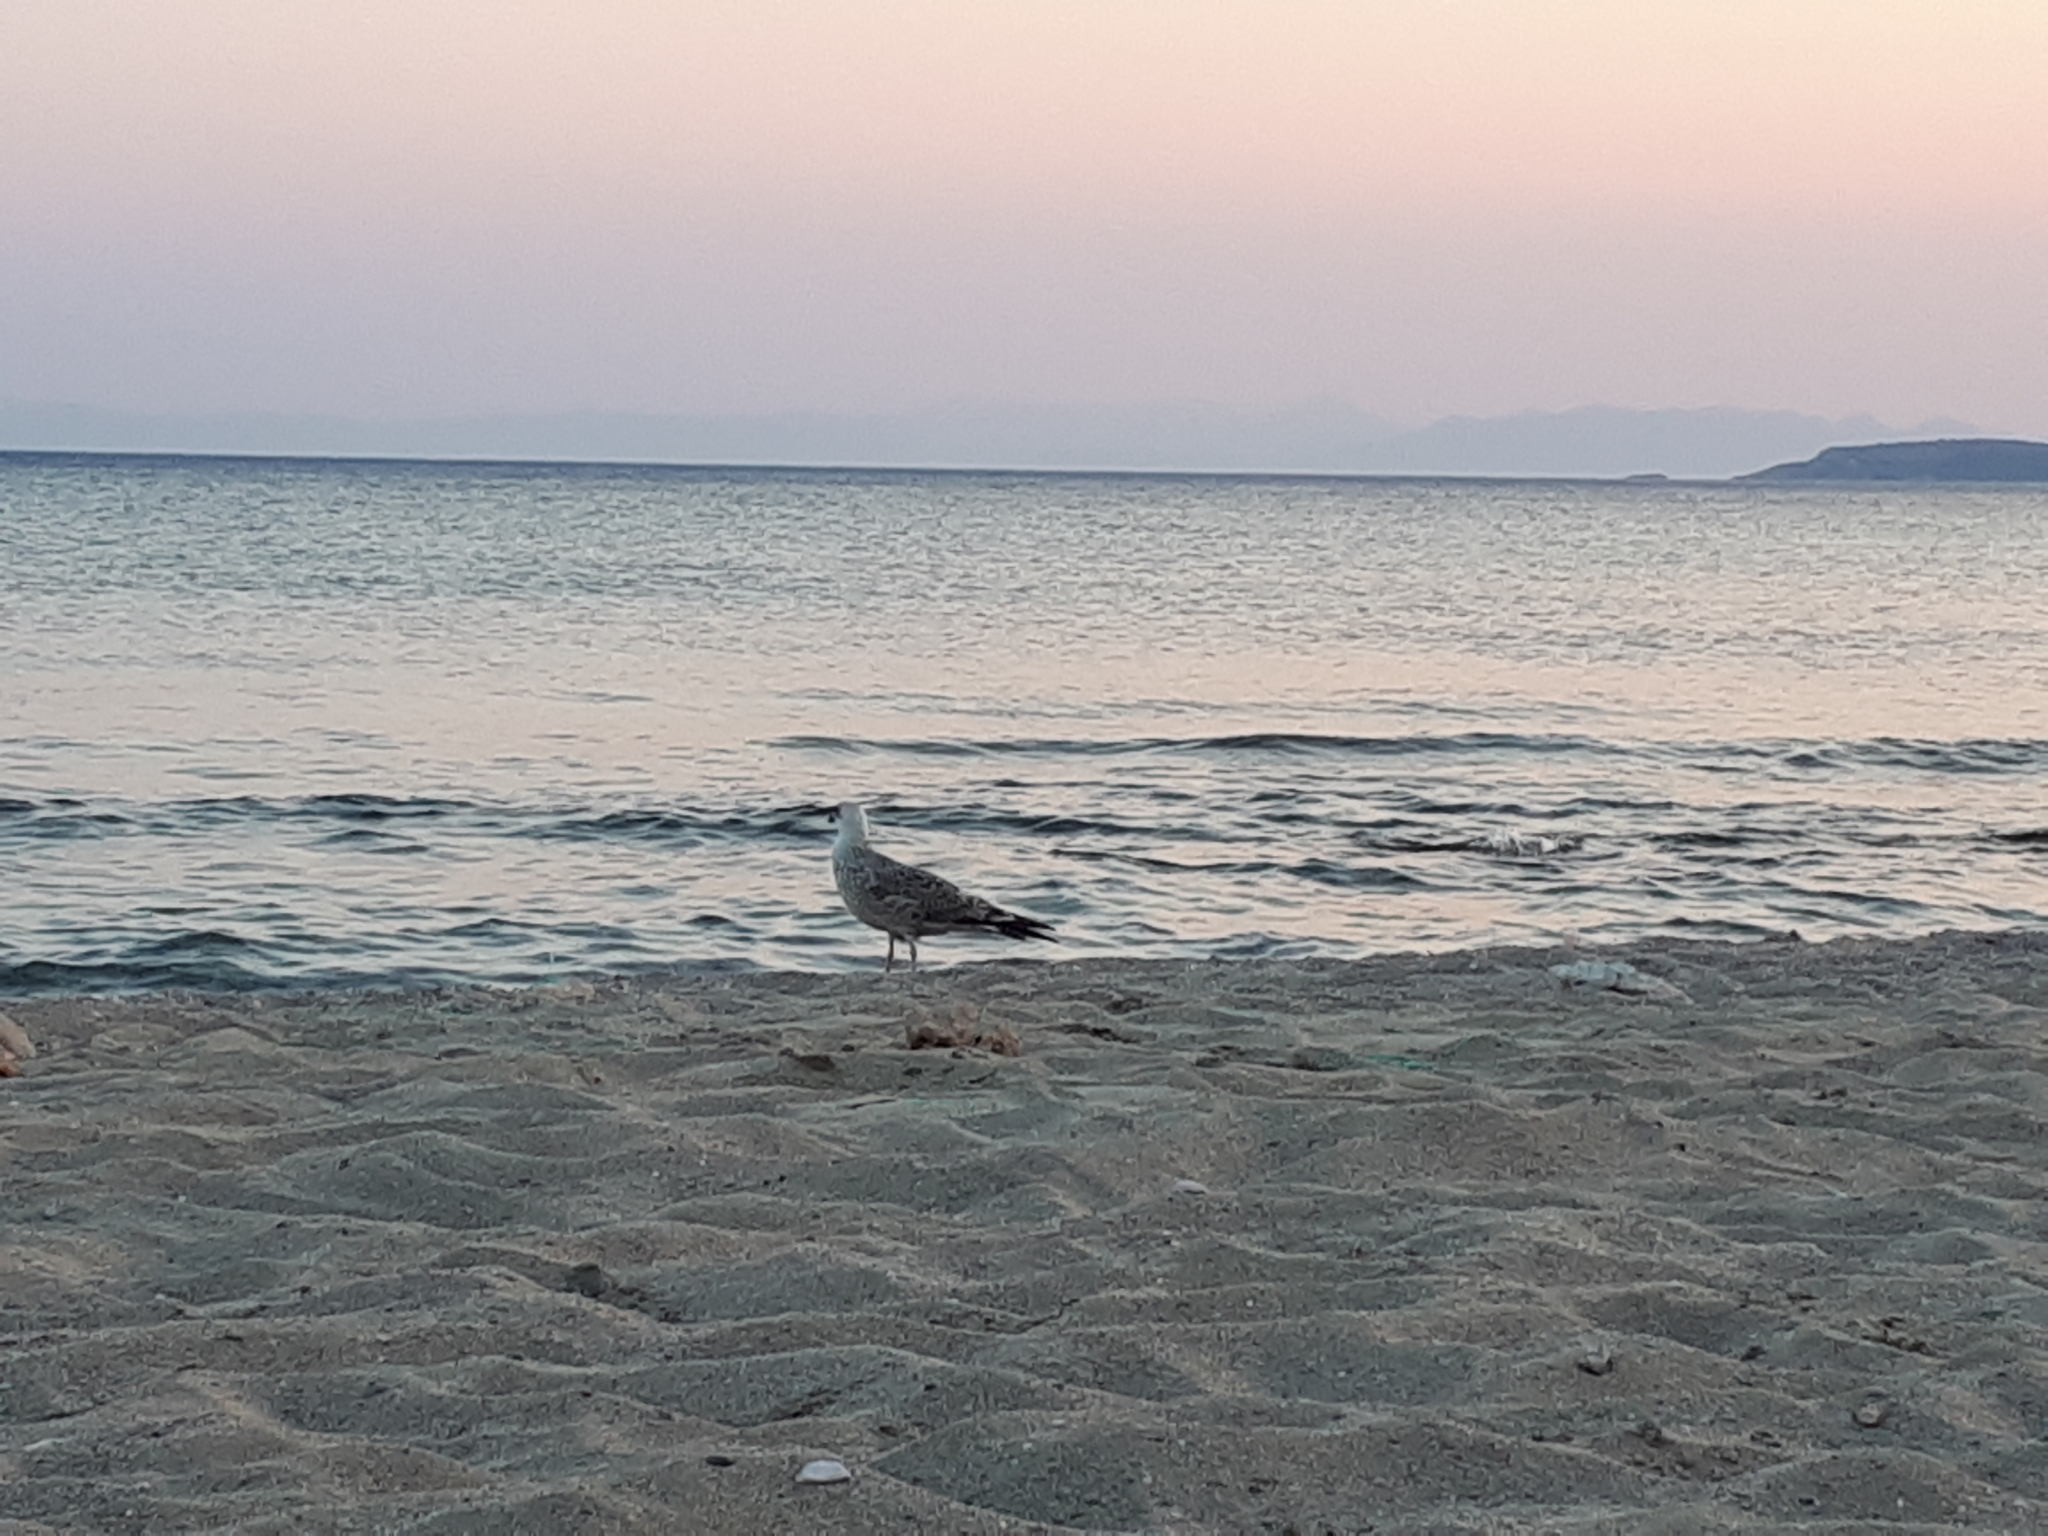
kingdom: Animalia
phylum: Chordata
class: Aves
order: Charadriiformes
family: Laridae
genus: Larus
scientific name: Larus michahellis
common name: Yellow-legged gull
